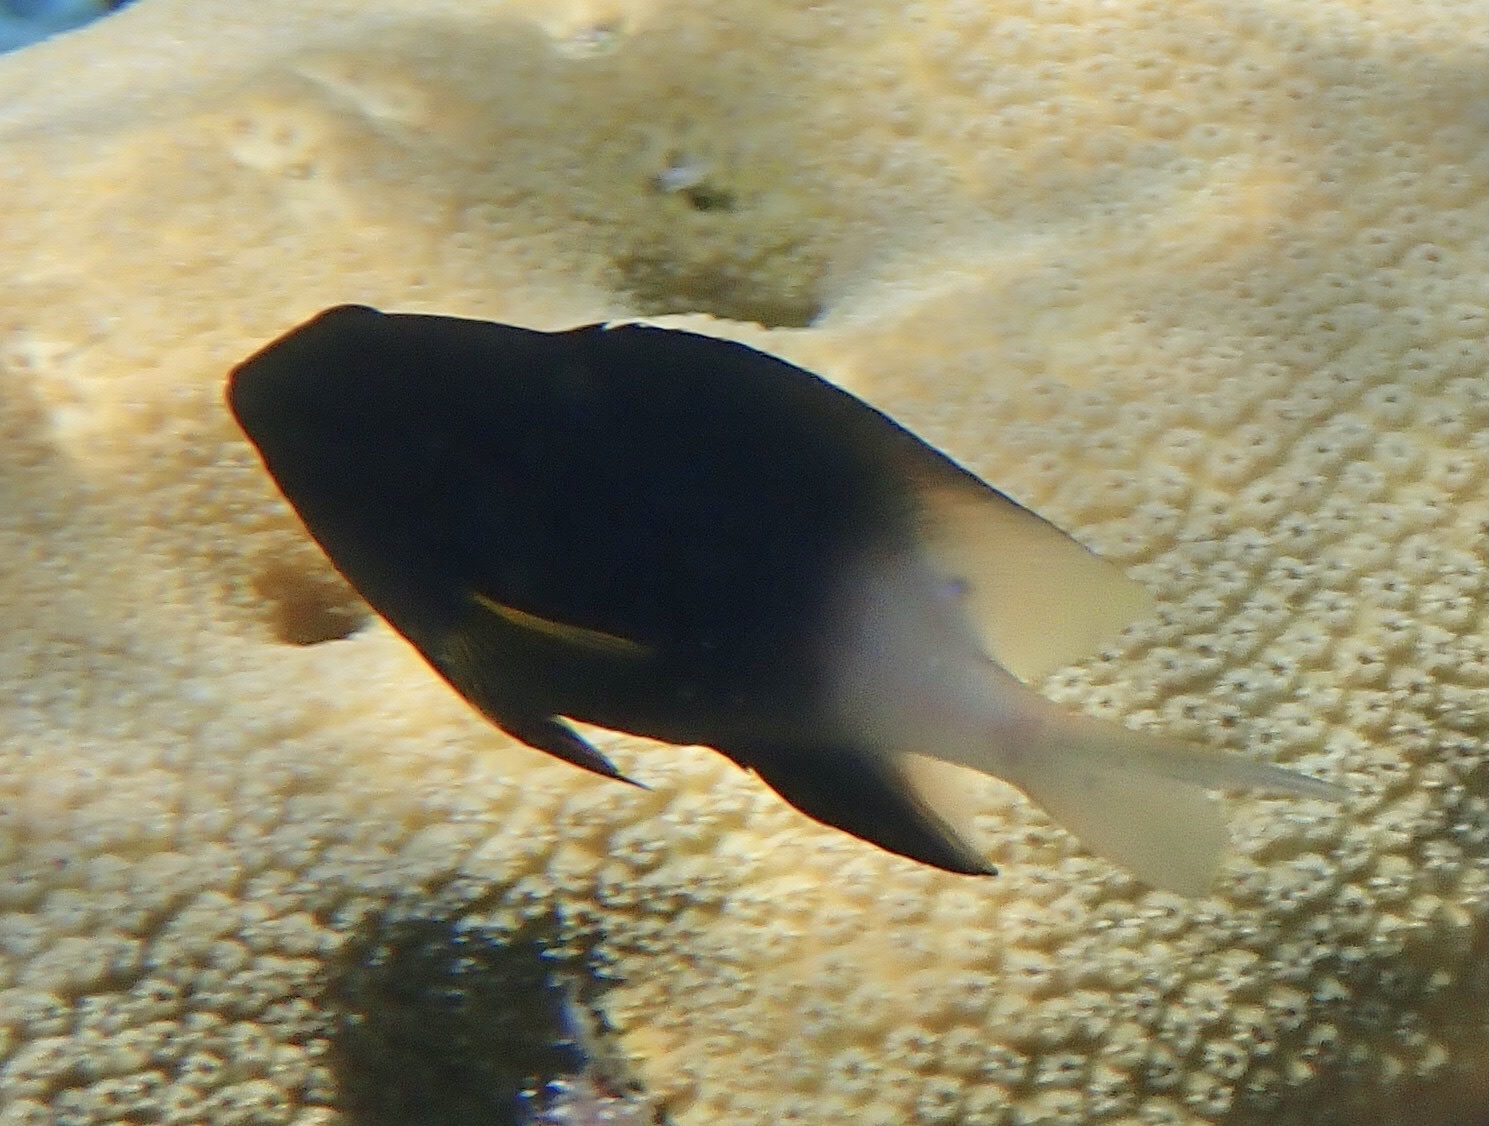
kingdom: Animalia
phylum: Chordata
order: Perciformes
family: Pomacentridae
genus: Stegastes
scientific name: Stegastes partitus
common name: Bicolor damselfish
